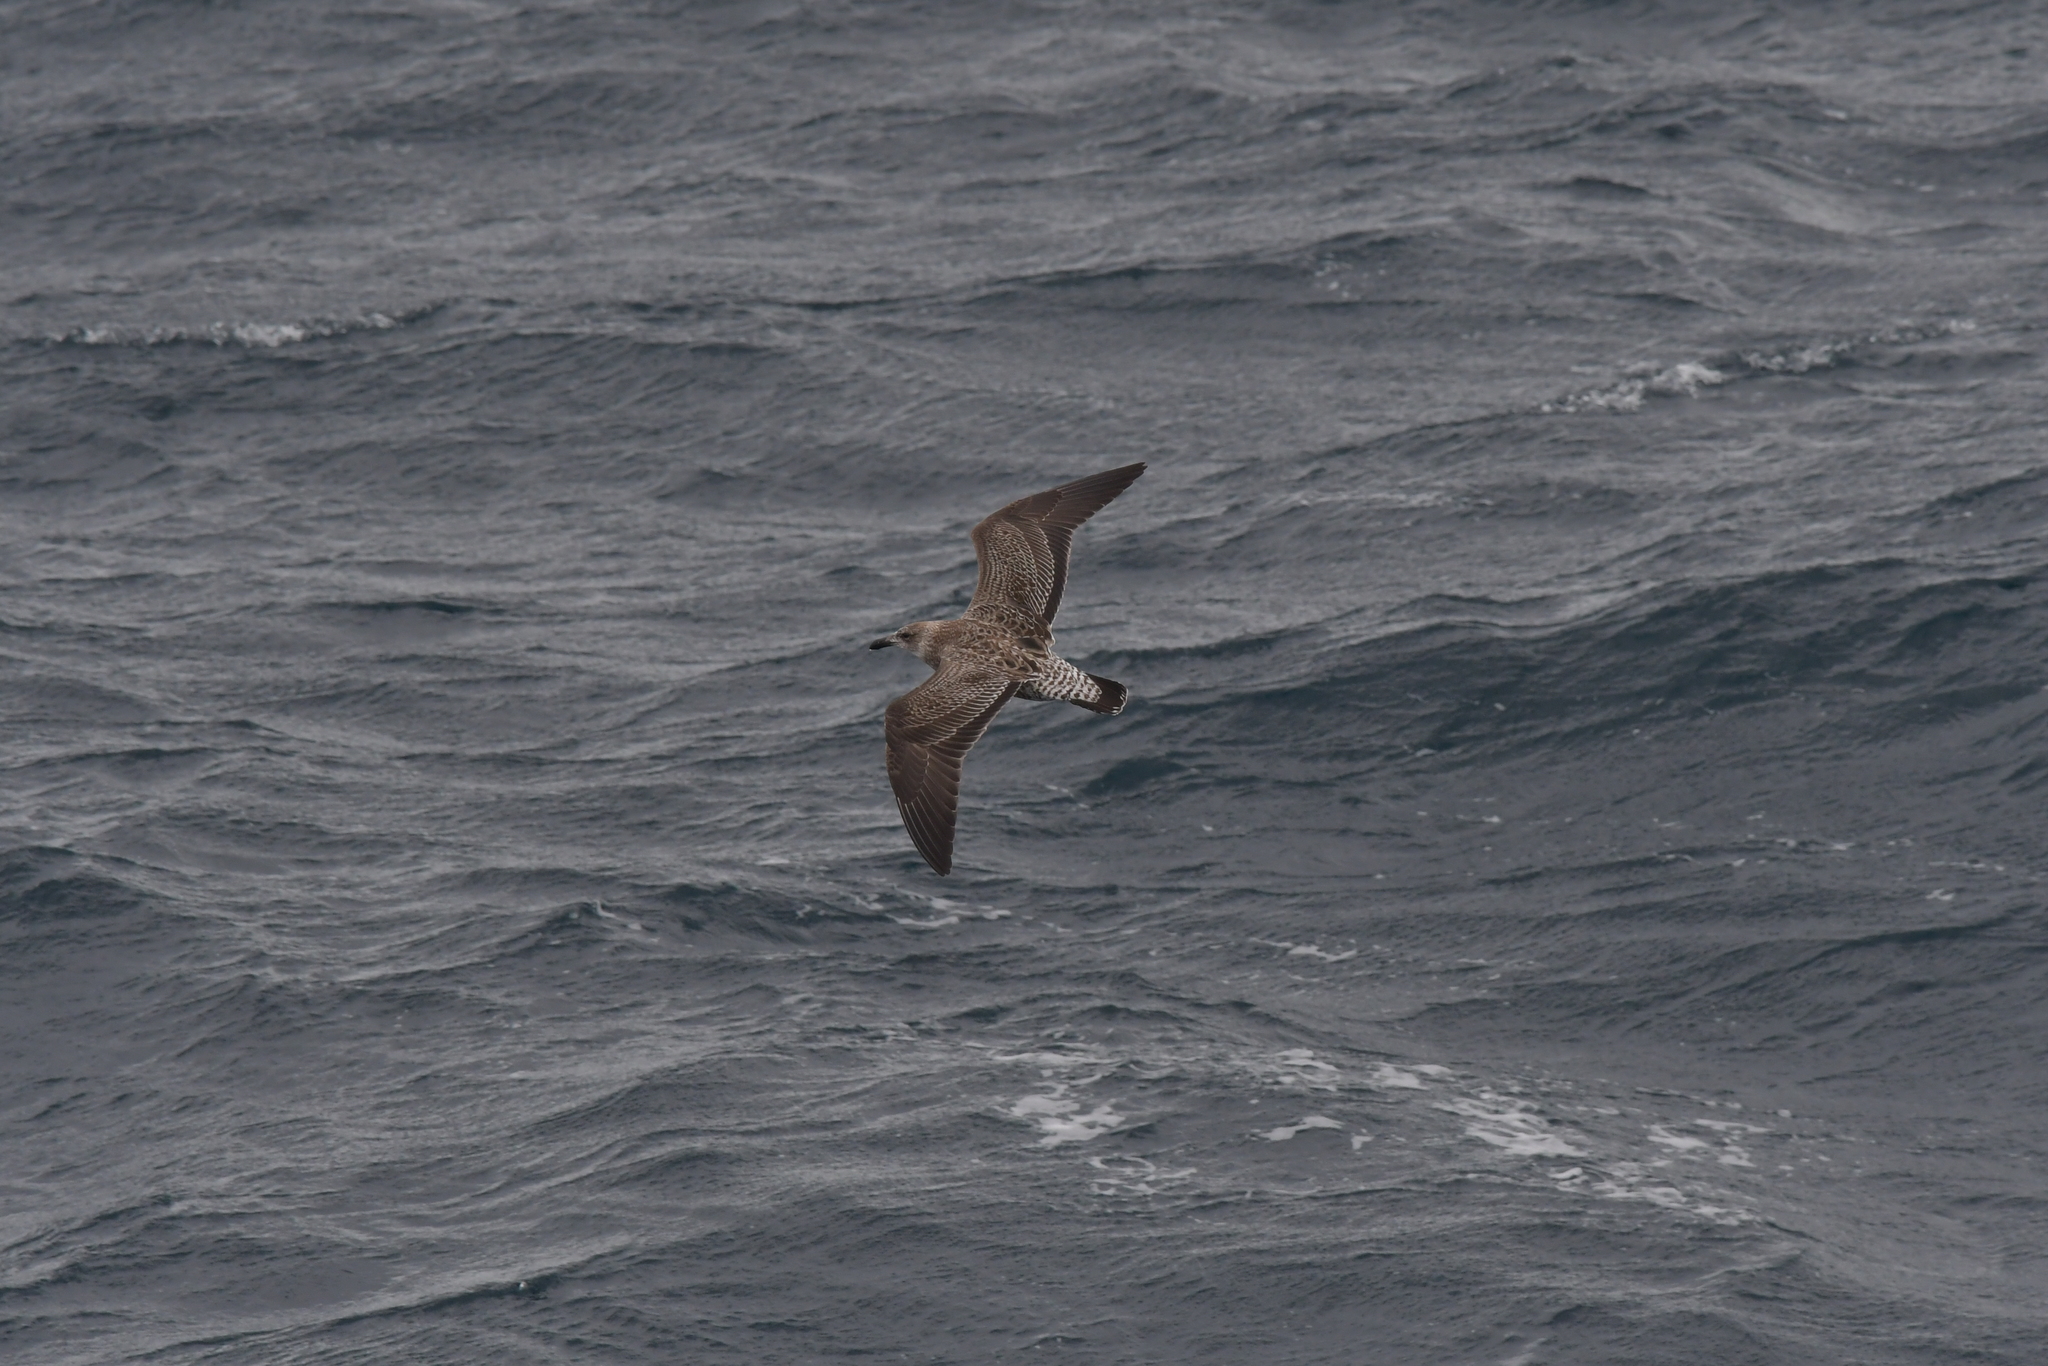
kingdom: Animalia
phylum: Chordata
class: Aves
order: Charadriiformes
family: Laridae
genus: Larus
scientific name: Larus dominicanus
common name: Kelp gull
